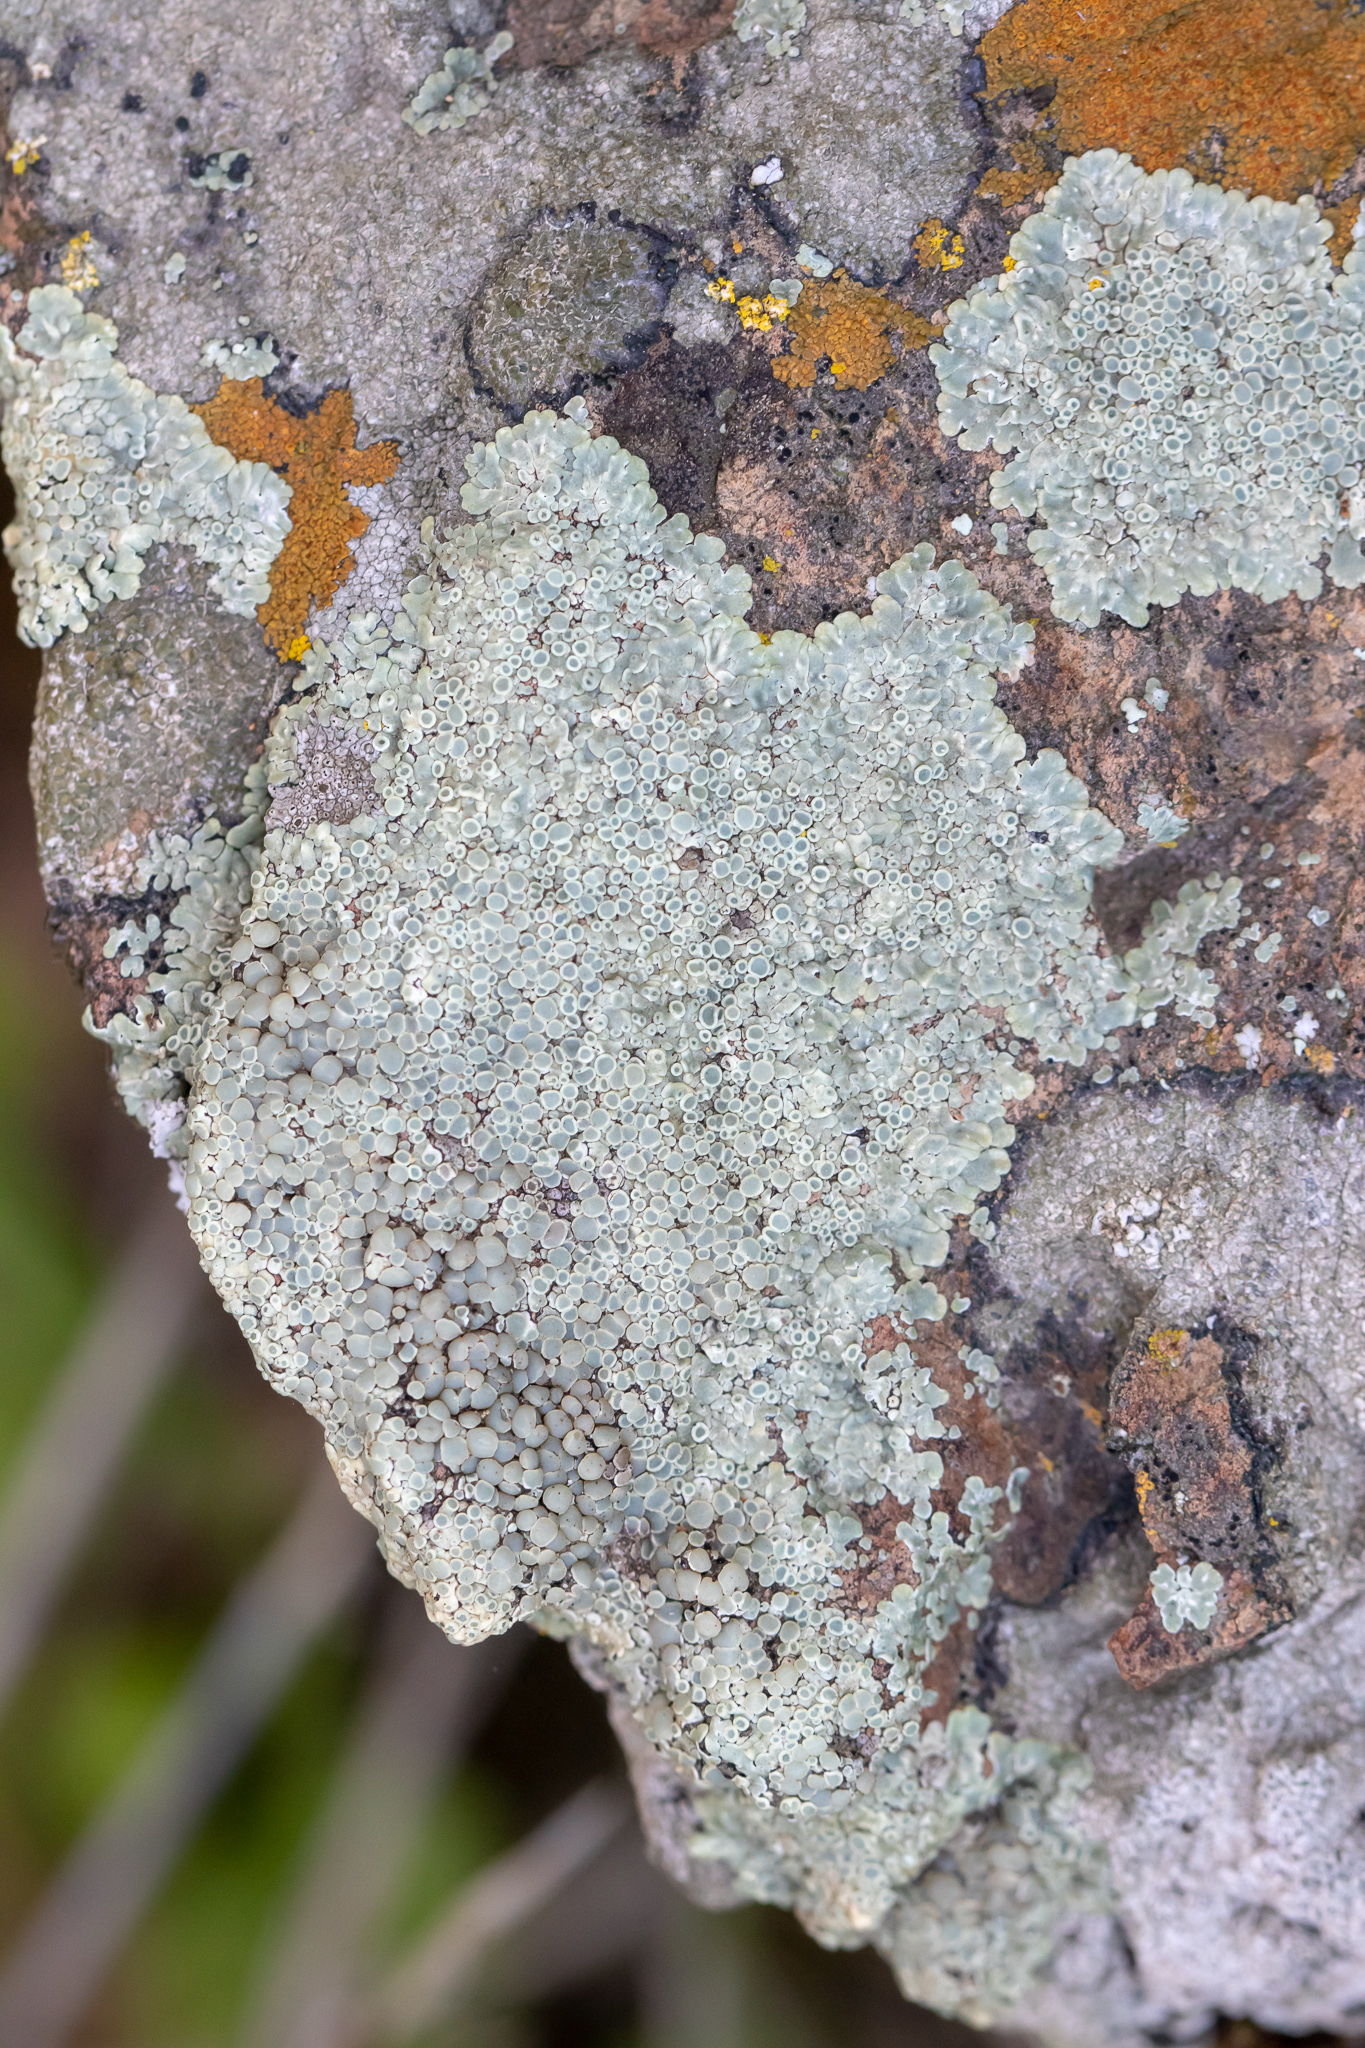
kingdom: Fungi
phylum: Ascomycota
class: Lecanoromycetes
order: Lecanorales
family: Lecanoraceae
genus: Protoparmeliopsis
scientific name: Protoparmeliopsis muralis
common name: Stonewall rim lichen
